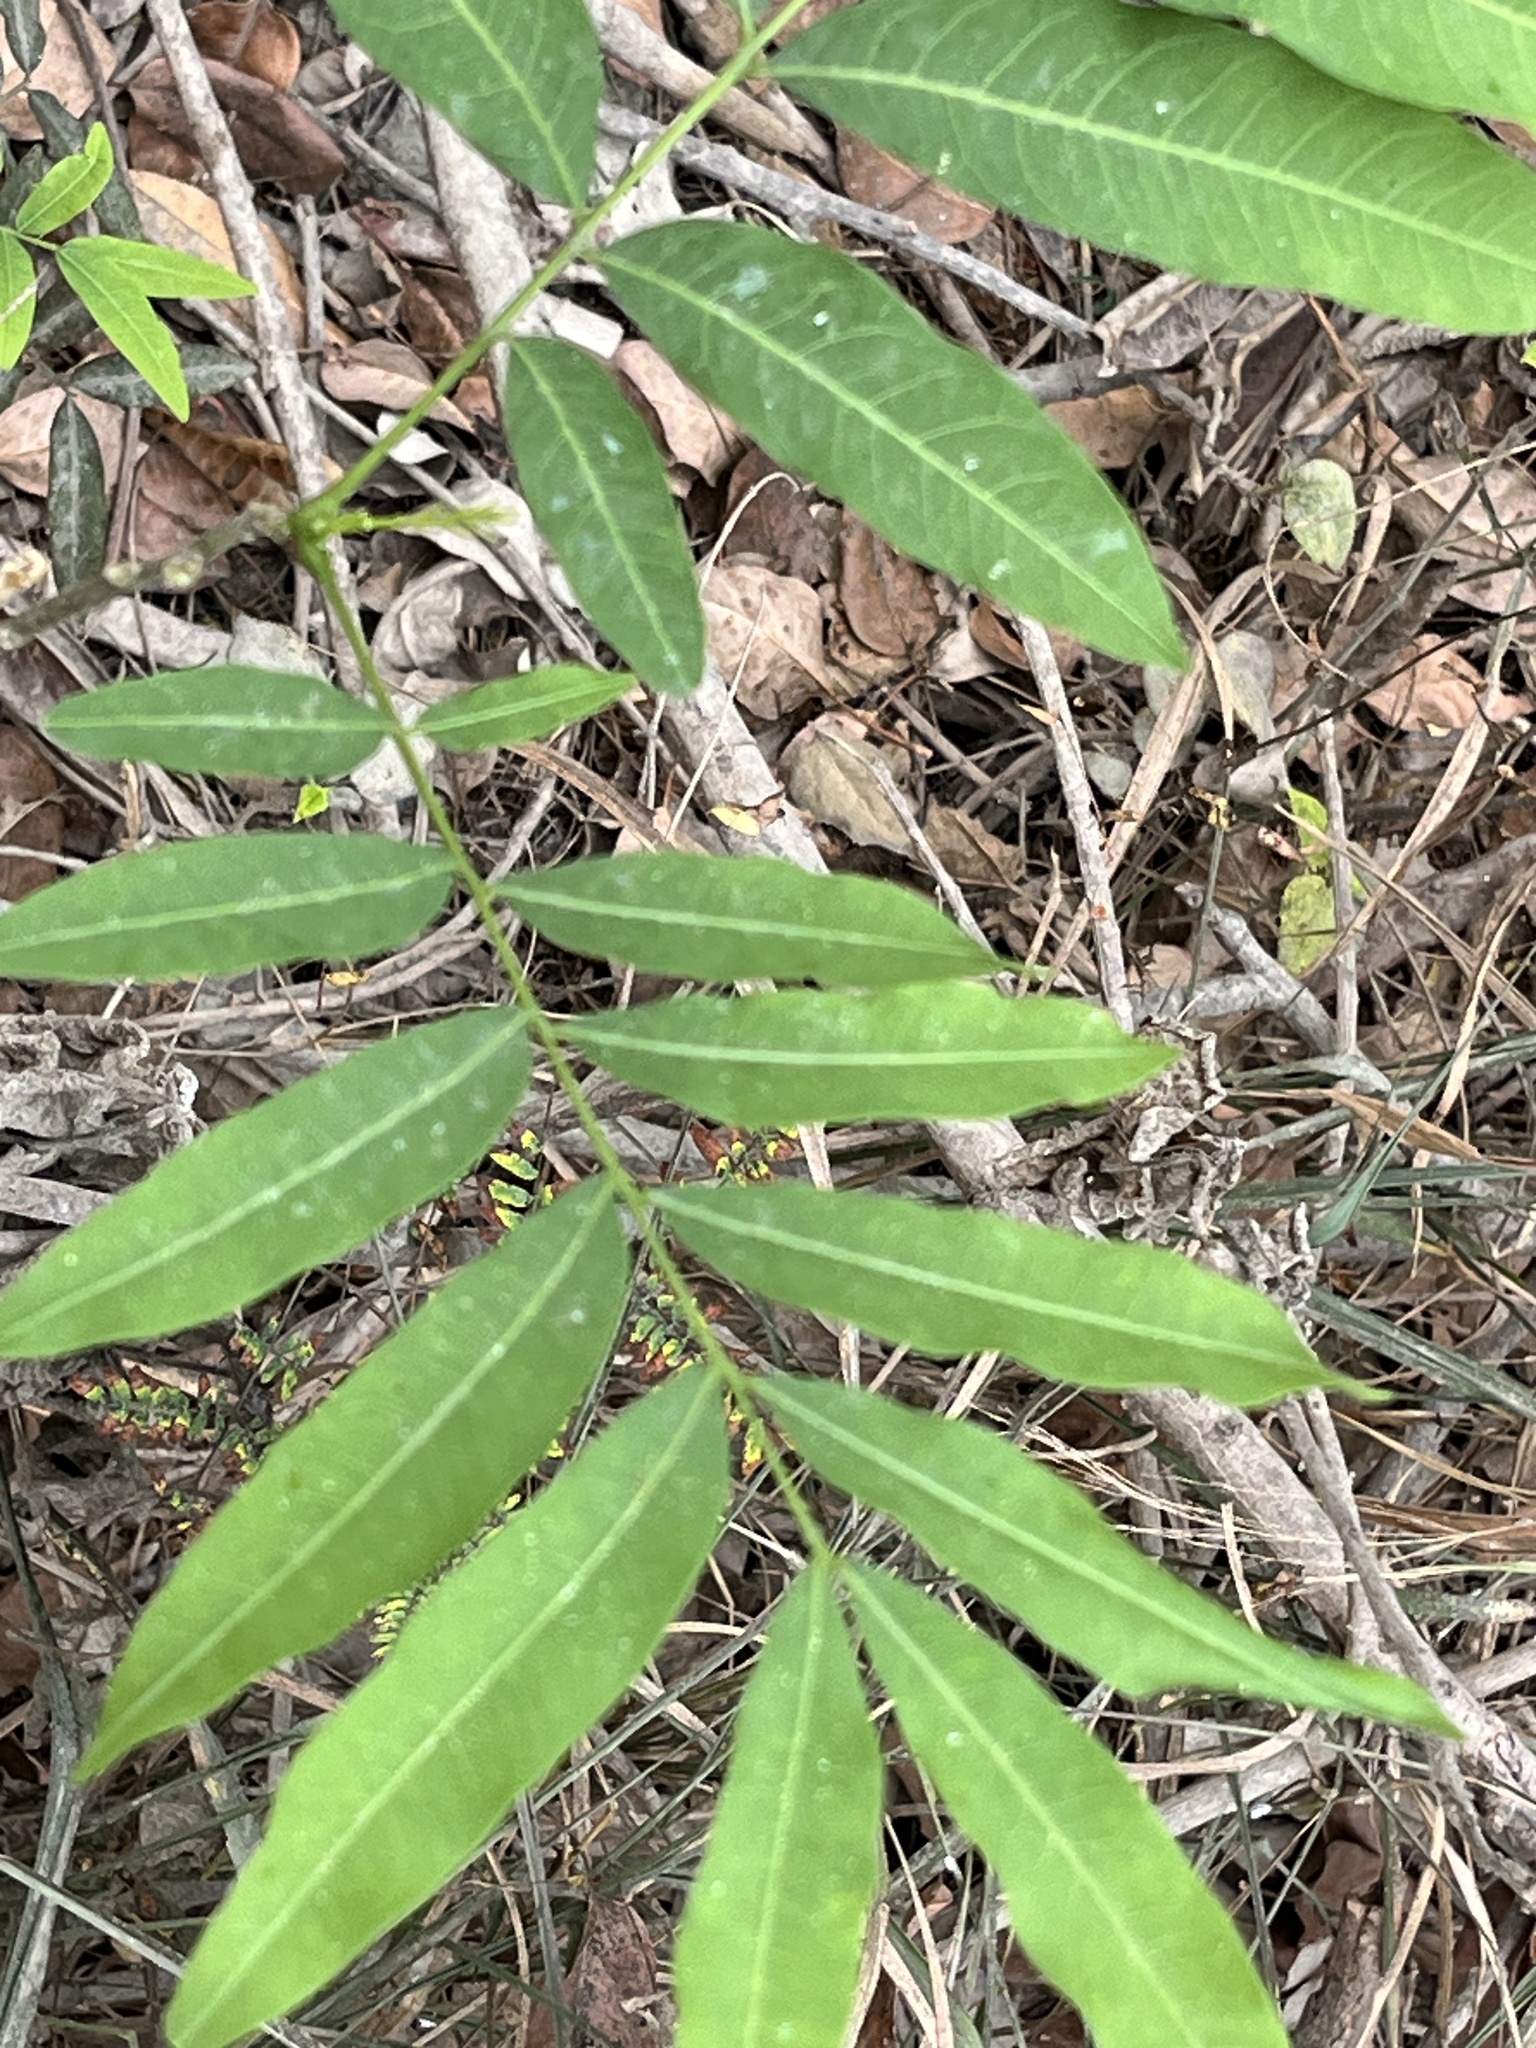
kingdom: Plantae
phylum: Tracheophyta
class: Magnoliopsida
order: Sapindales
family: Sapindaceae
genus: Sapindus
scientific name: Sapindus mukorossi
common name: Chinese soapberry
